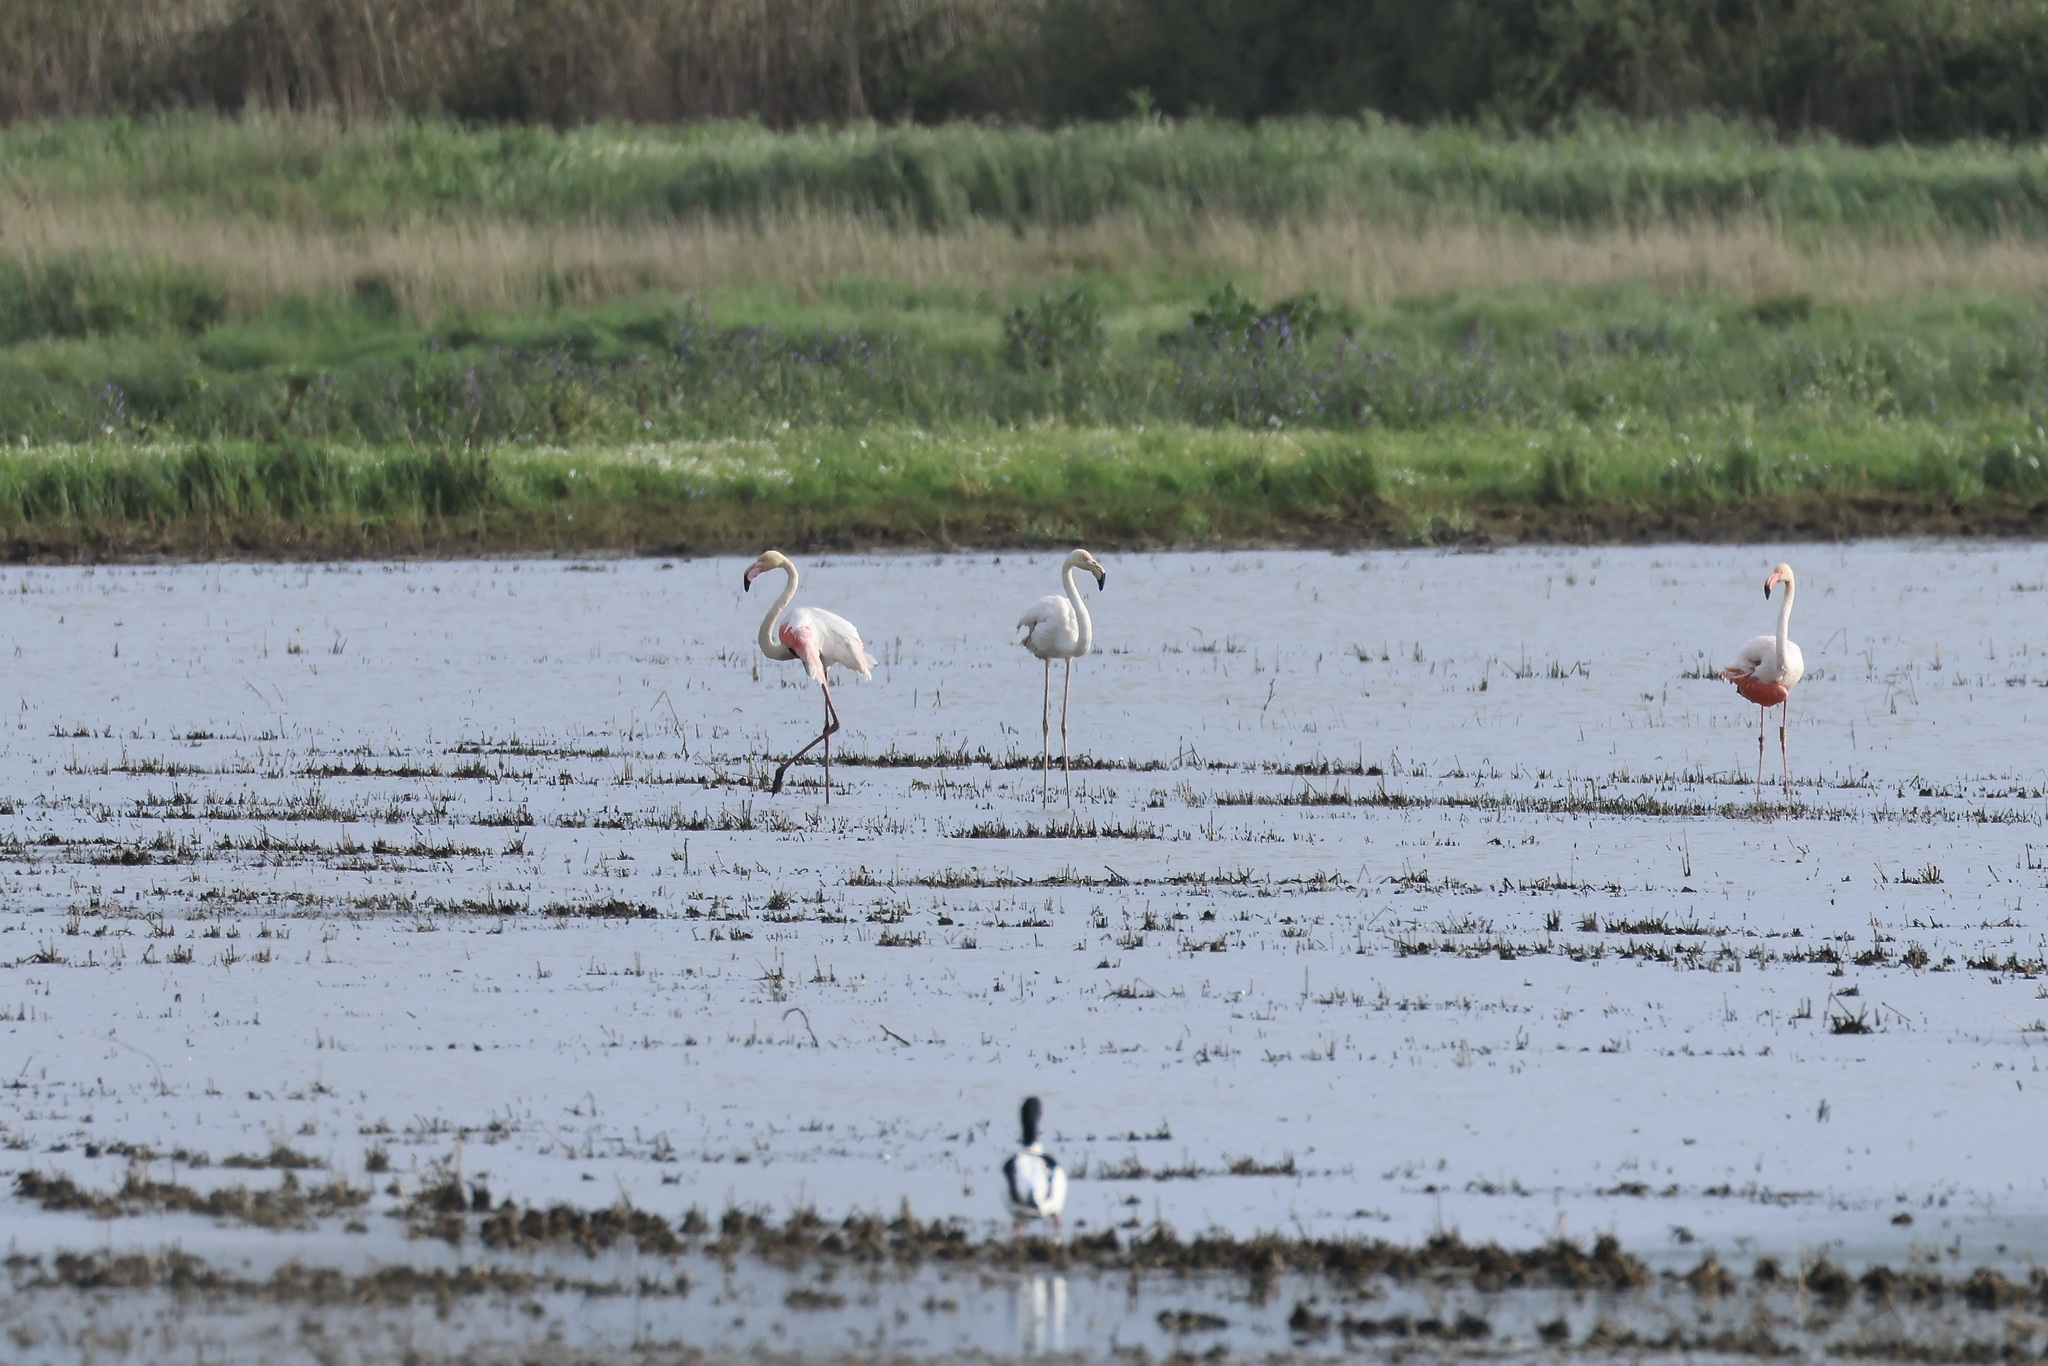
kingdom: Animalia
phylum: Chordata
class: Aves
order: Phoenicopteriformes
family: Phoenicopteridae
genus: Phoenicopterus
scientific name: Phoenicopterus roseus
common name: Greater flamingo
